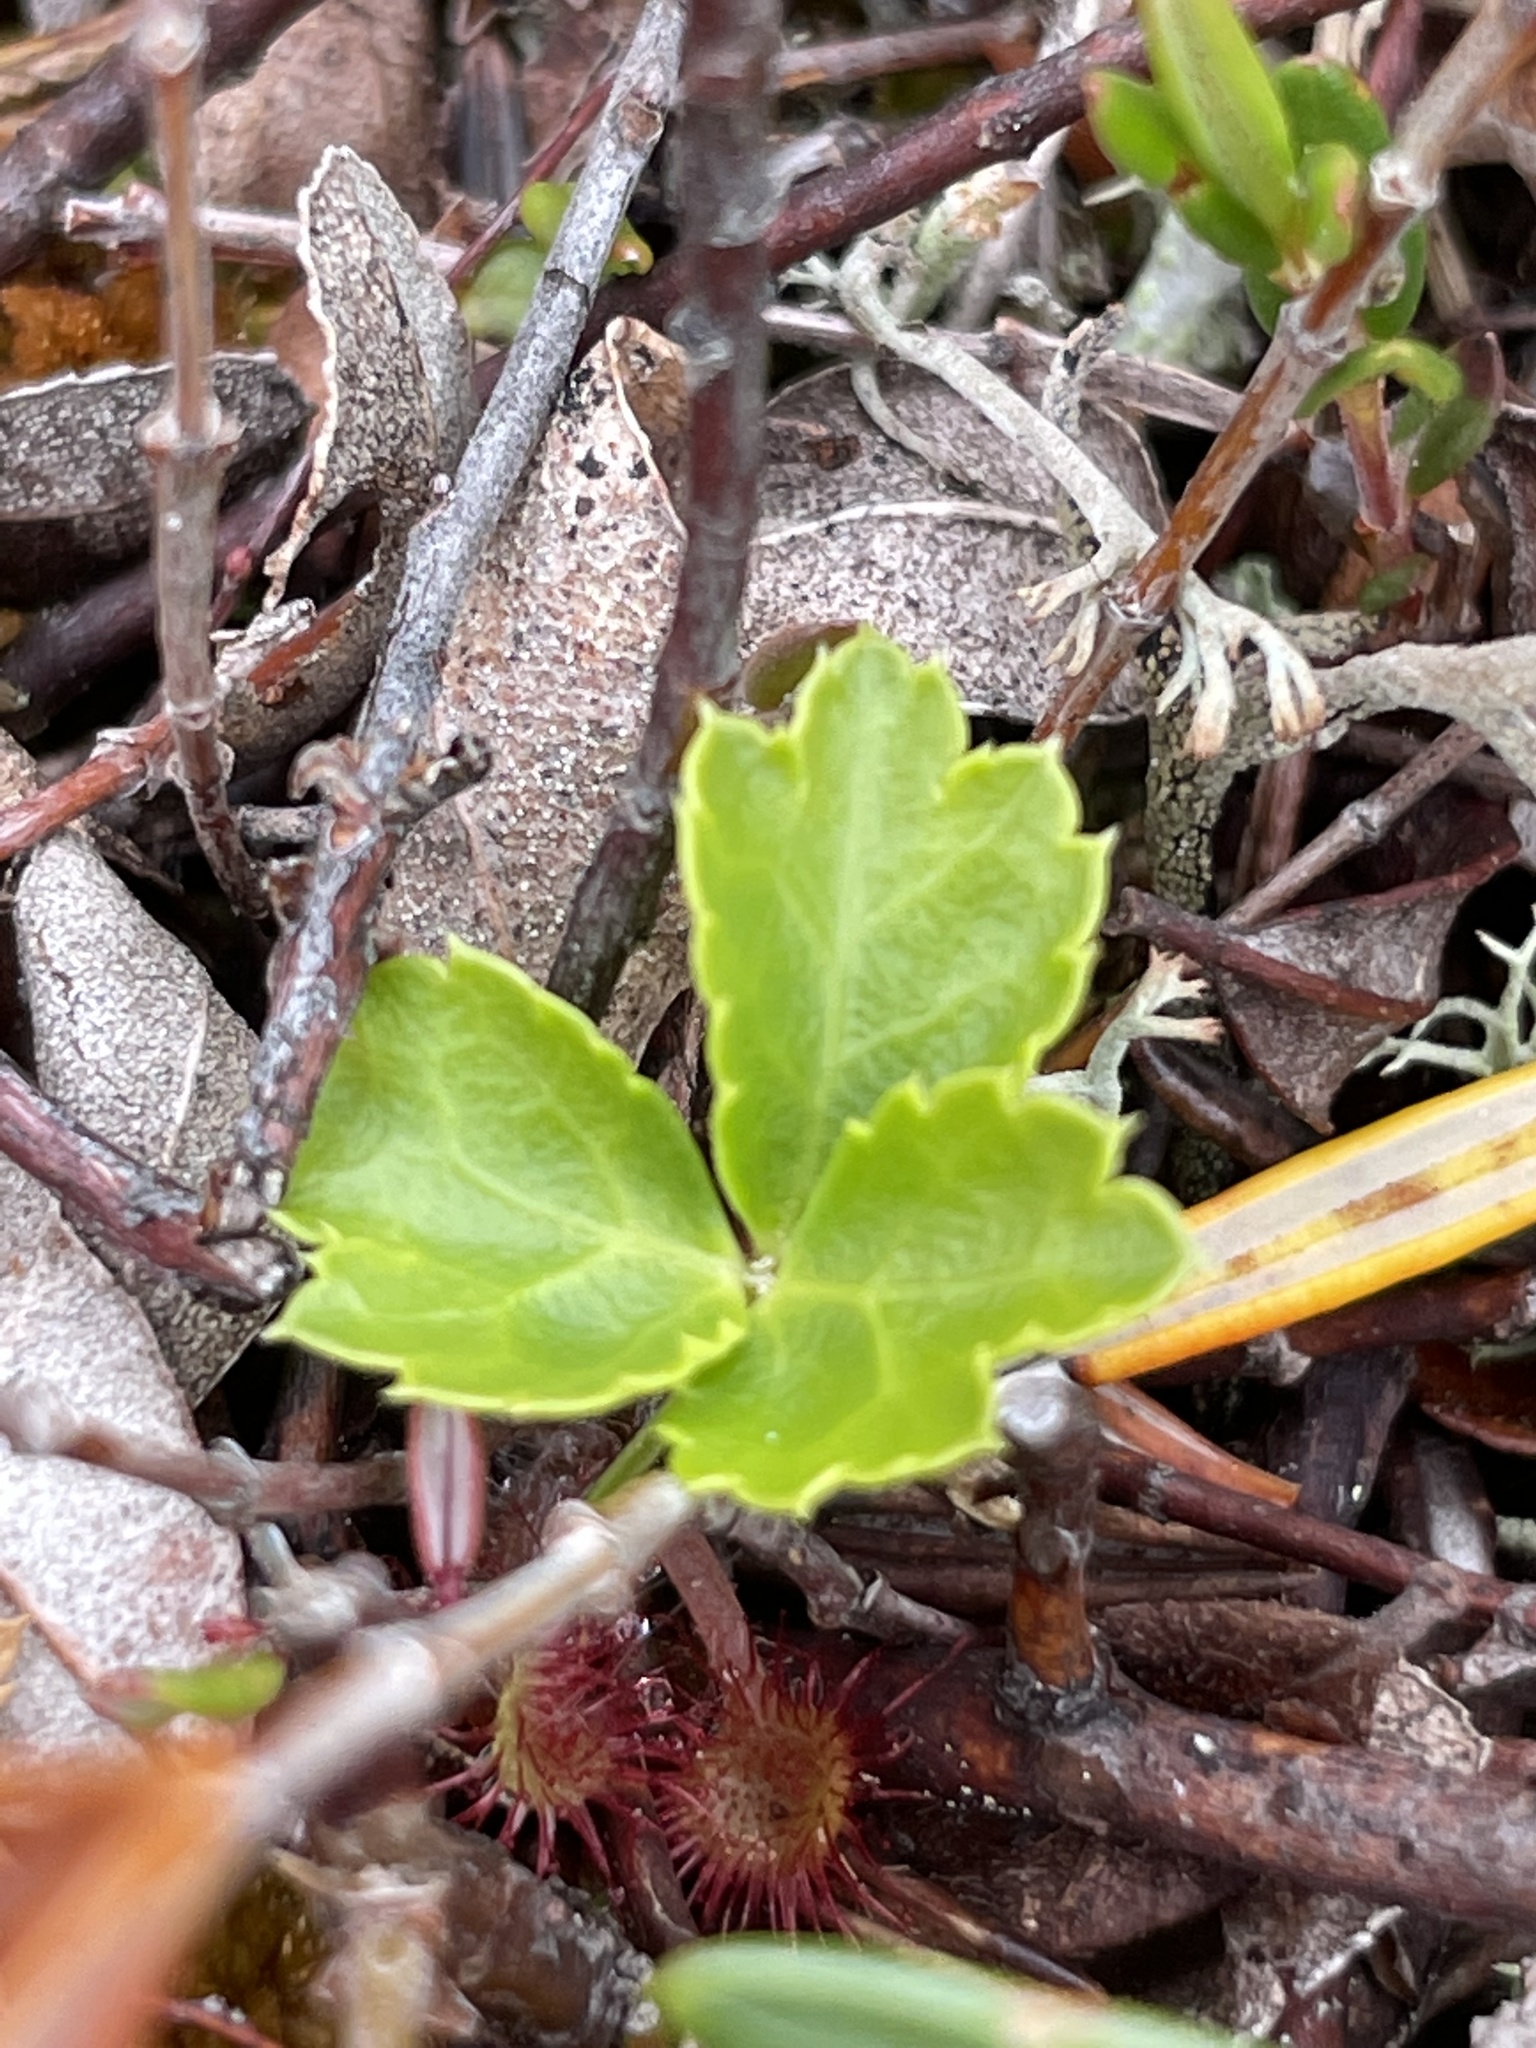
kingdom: Plantae
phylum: Tracheophyta
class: Magnoliopsida
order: Ranunculales
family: Ranunculaceae
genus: Coptis
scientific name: Coptis trifolia
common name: Canker-root
